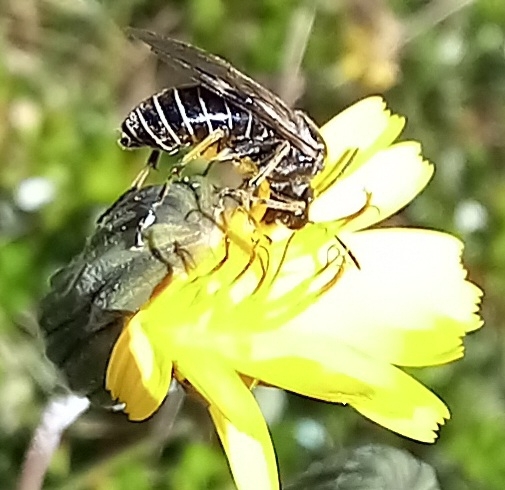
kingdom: Animalia
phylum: Arthropoda
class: Insecta
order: Hymenoptera
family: Tenthredinidae
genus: Tenthredo
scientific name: Tenthredo limbalis
